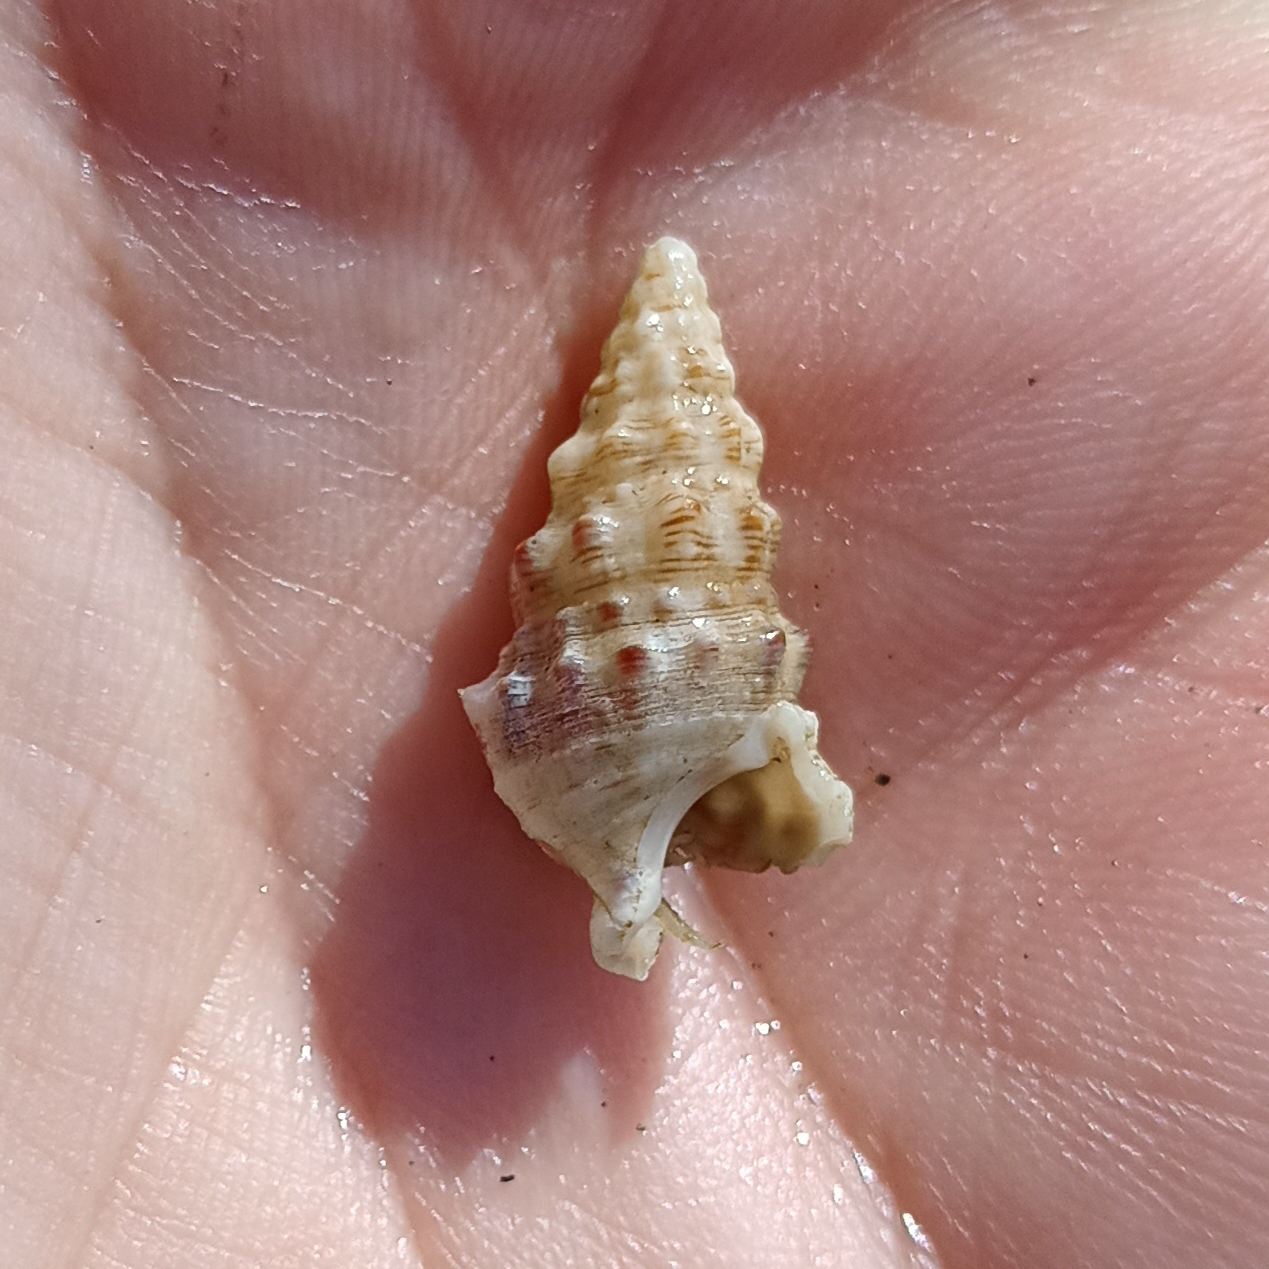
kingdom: Animalia
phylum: Mollusca
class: Gastropoda
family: Cerithiidae
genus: Cerithium
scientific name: Cerithium atratum
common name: Dark cerith
